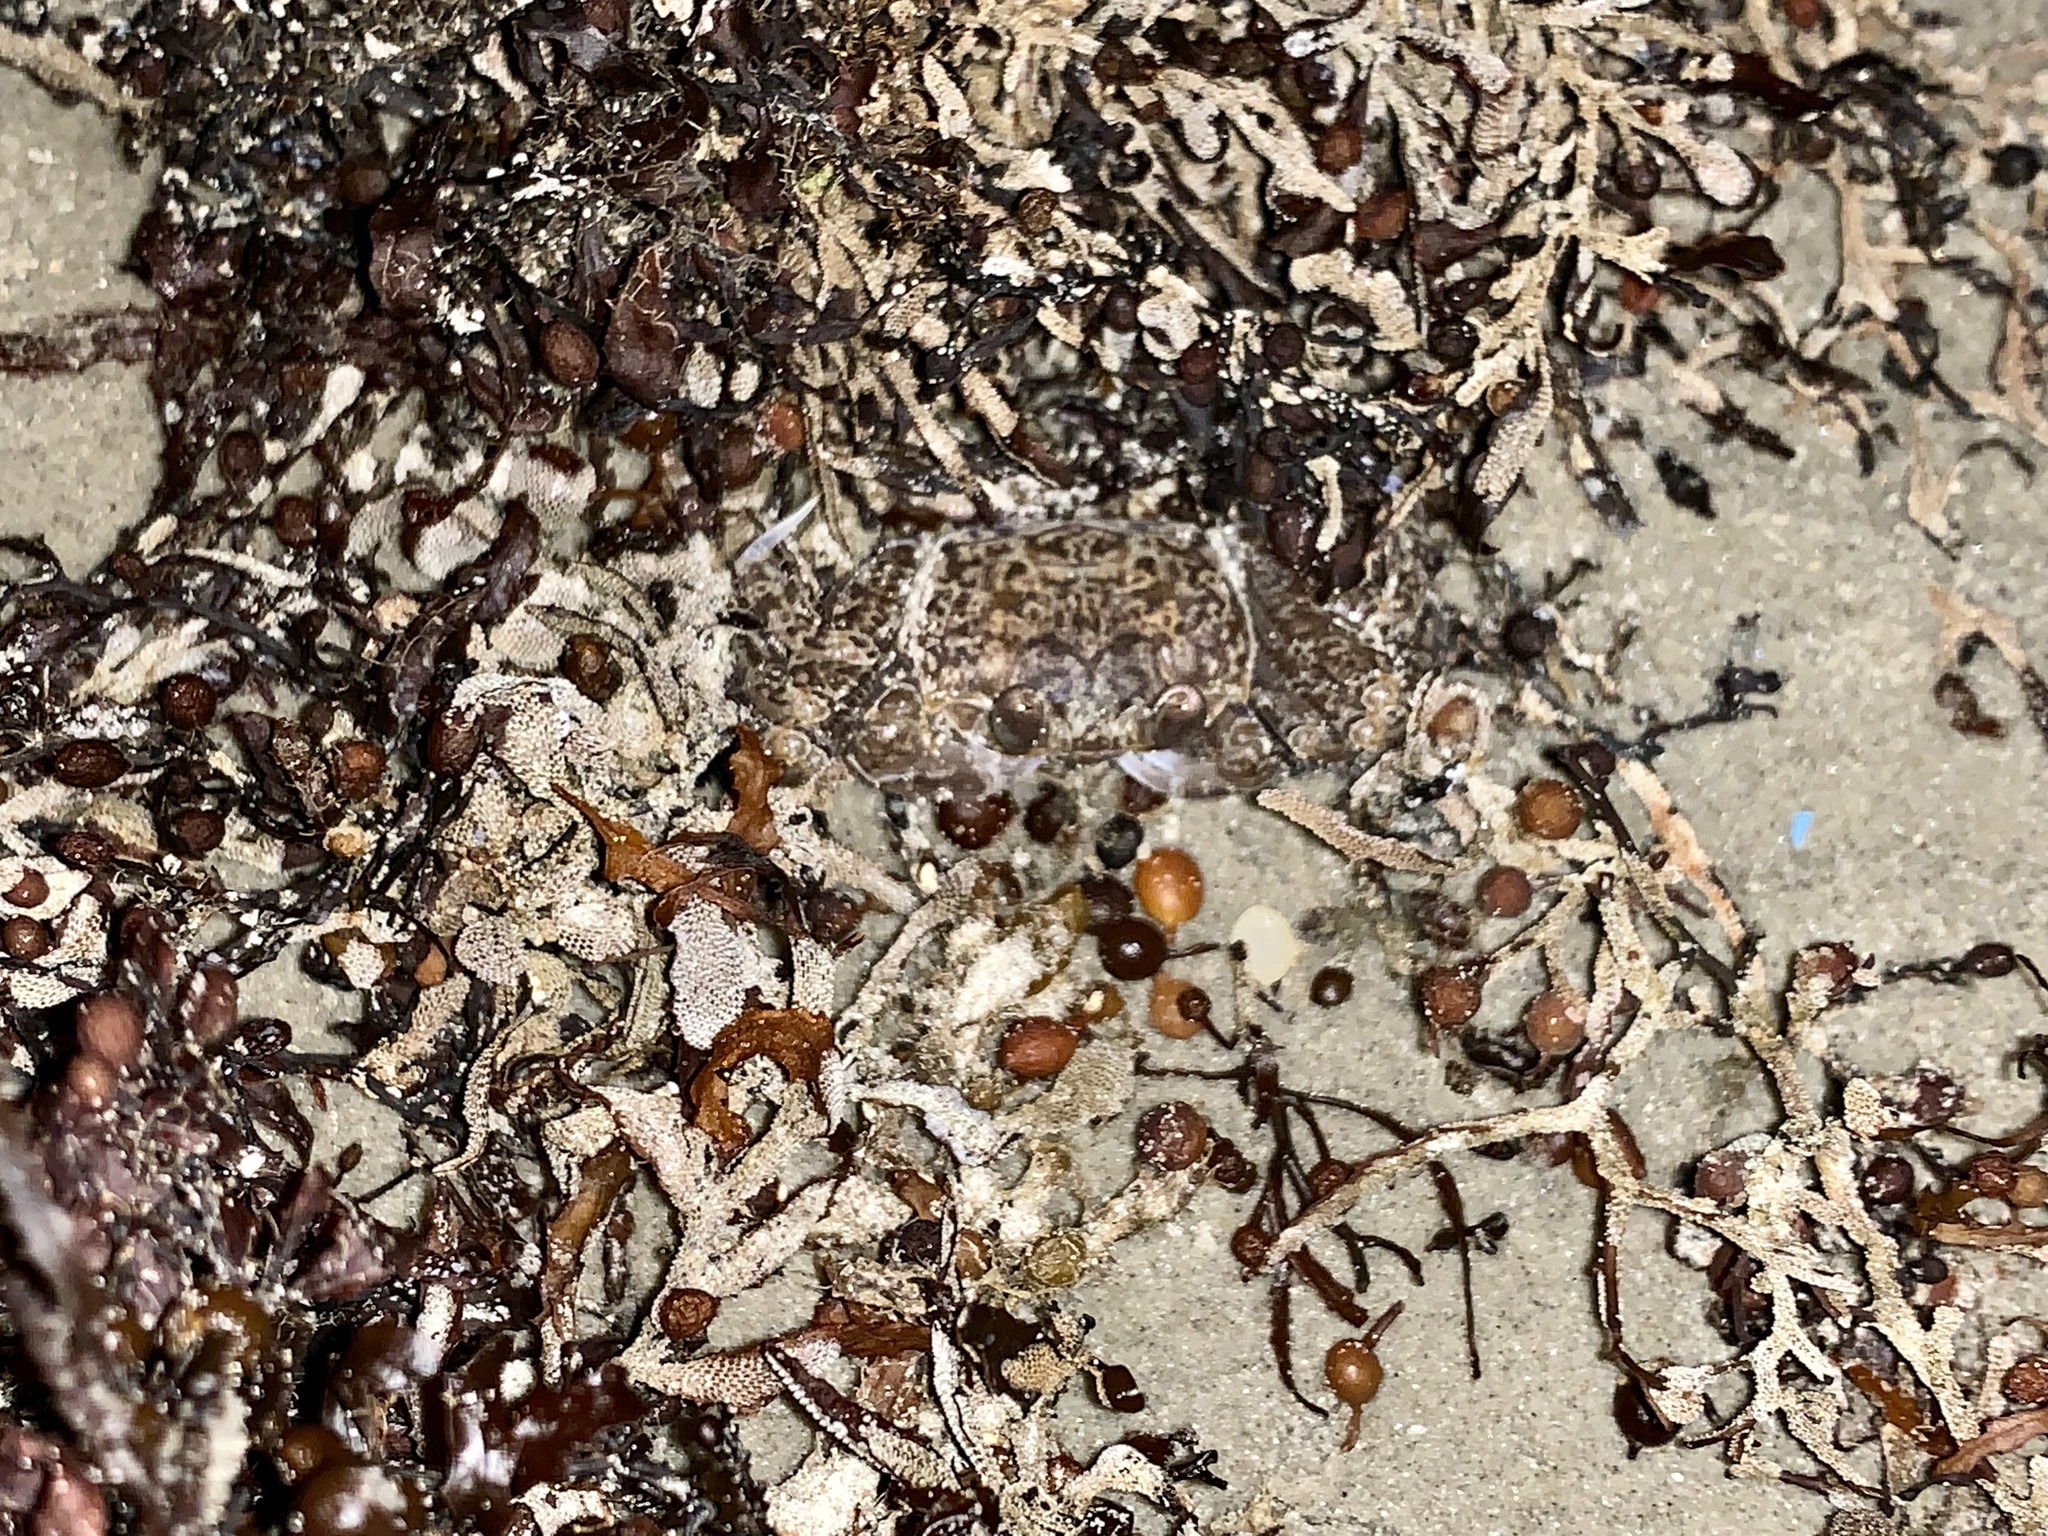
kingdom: Animalia
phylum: Arthropoda
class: Malacostraca
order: Decapoda
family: Ocypodidae
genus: Ocypode
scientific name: Ocypode quadrata
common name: Ghost crab
